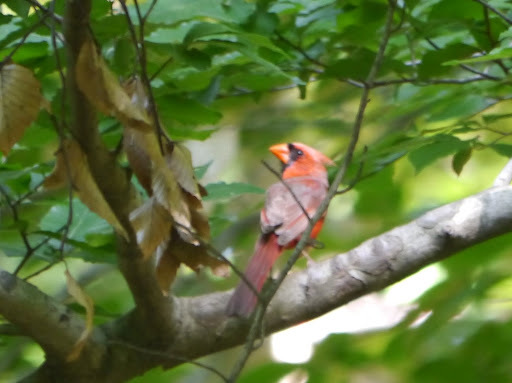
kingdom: Animalia
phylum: Chordata
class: Aves
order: Passeriformes
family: Cardinalidae
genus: Cardinalis
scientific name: Cardinalis cardinalis
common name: Northern cardinal
